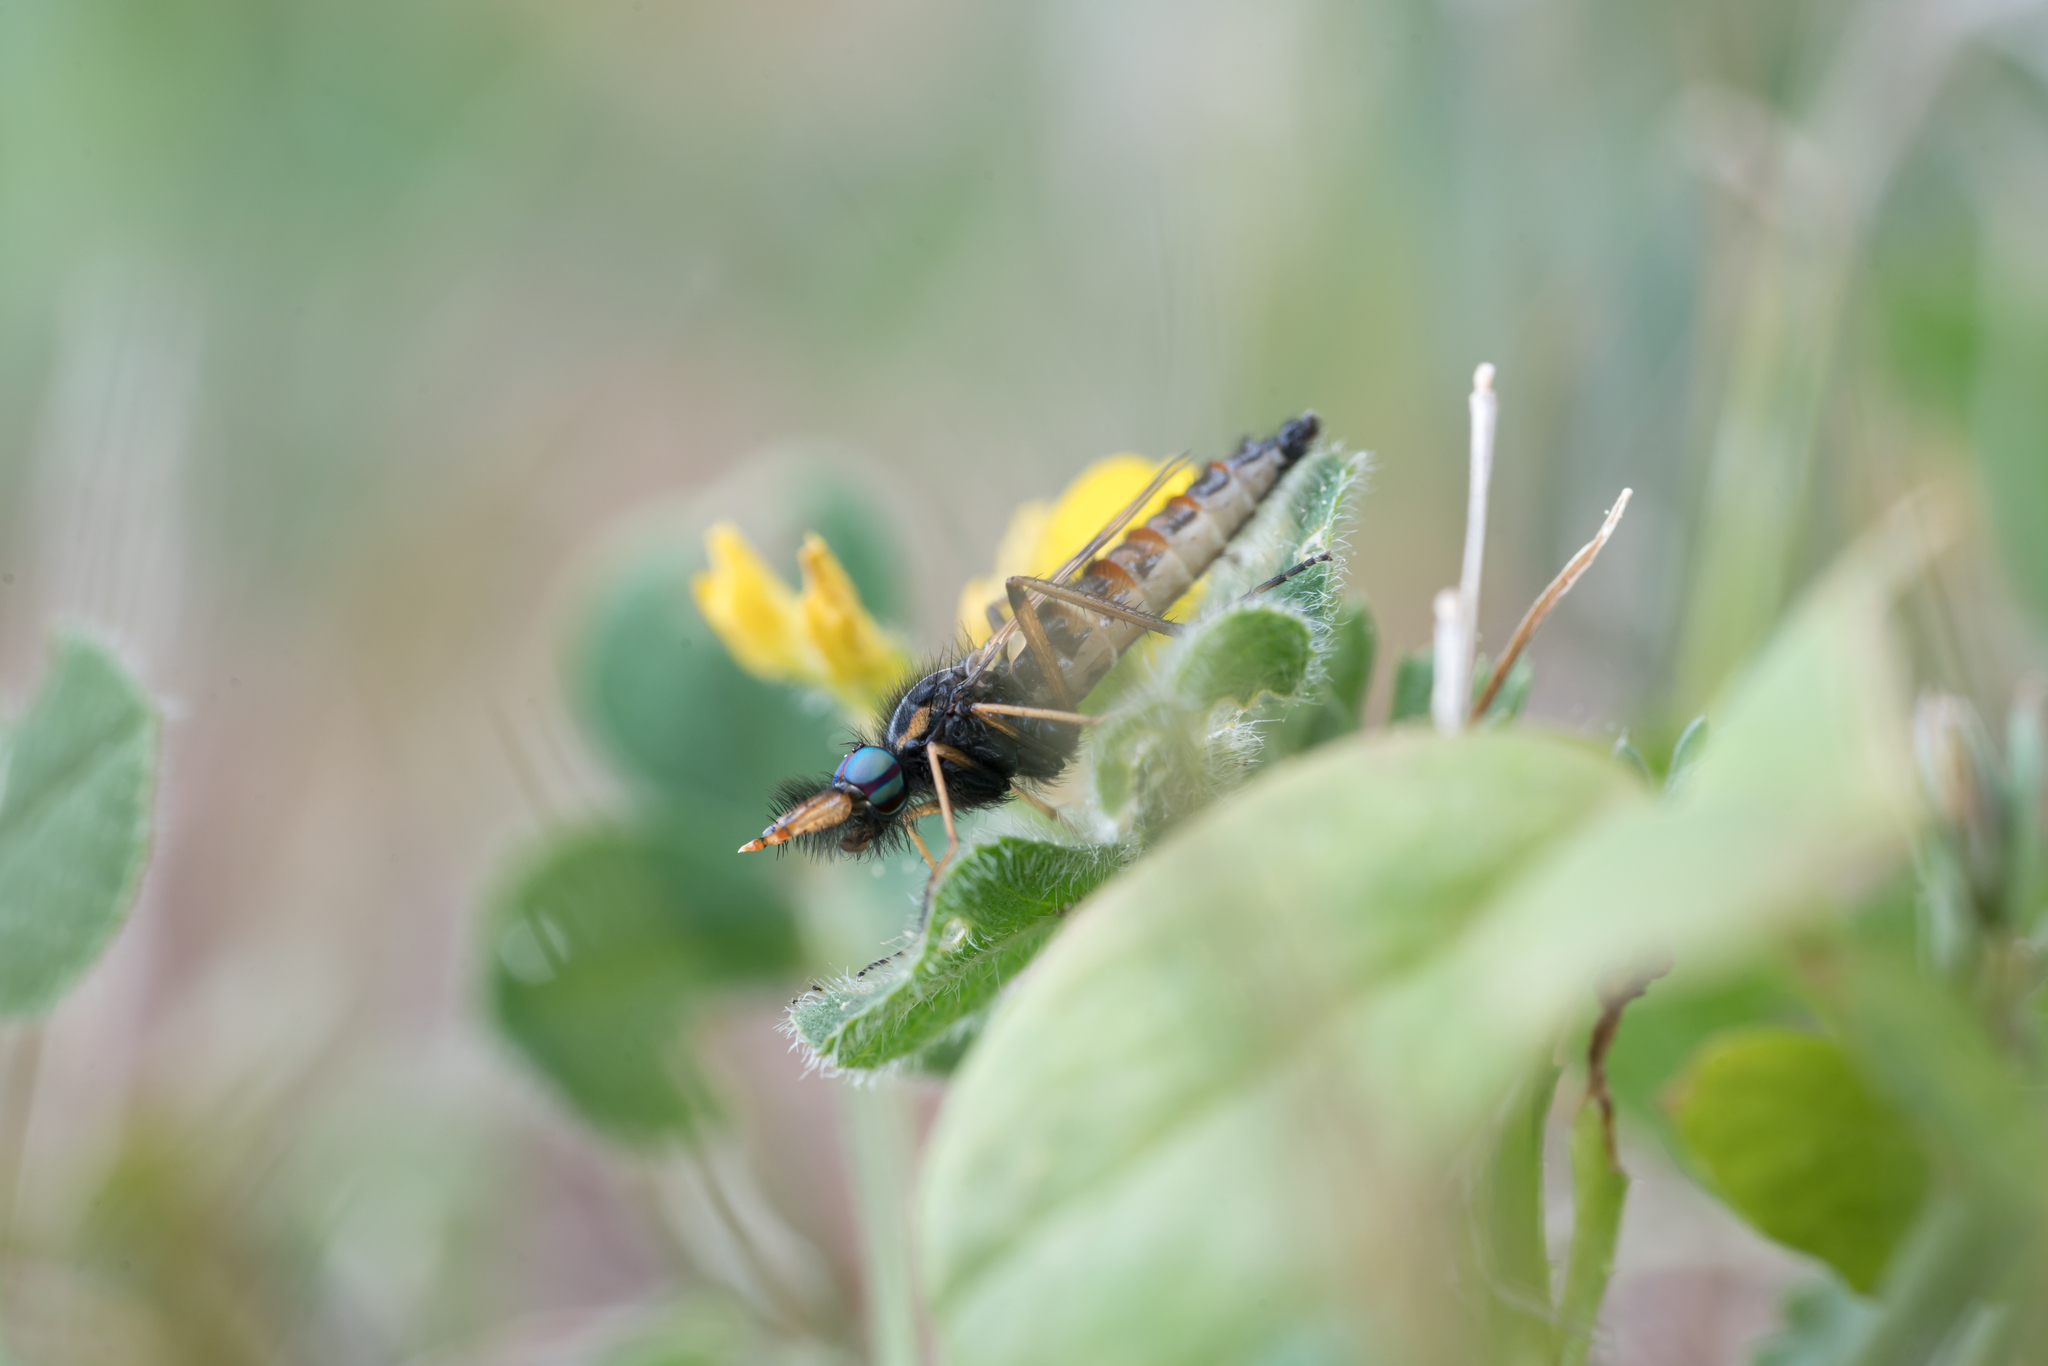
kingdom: Animalia
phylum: Arthropoda
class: Insecta
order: Diptera
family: Therevidae
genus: Baryphora
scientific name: Baryphora speciosa
